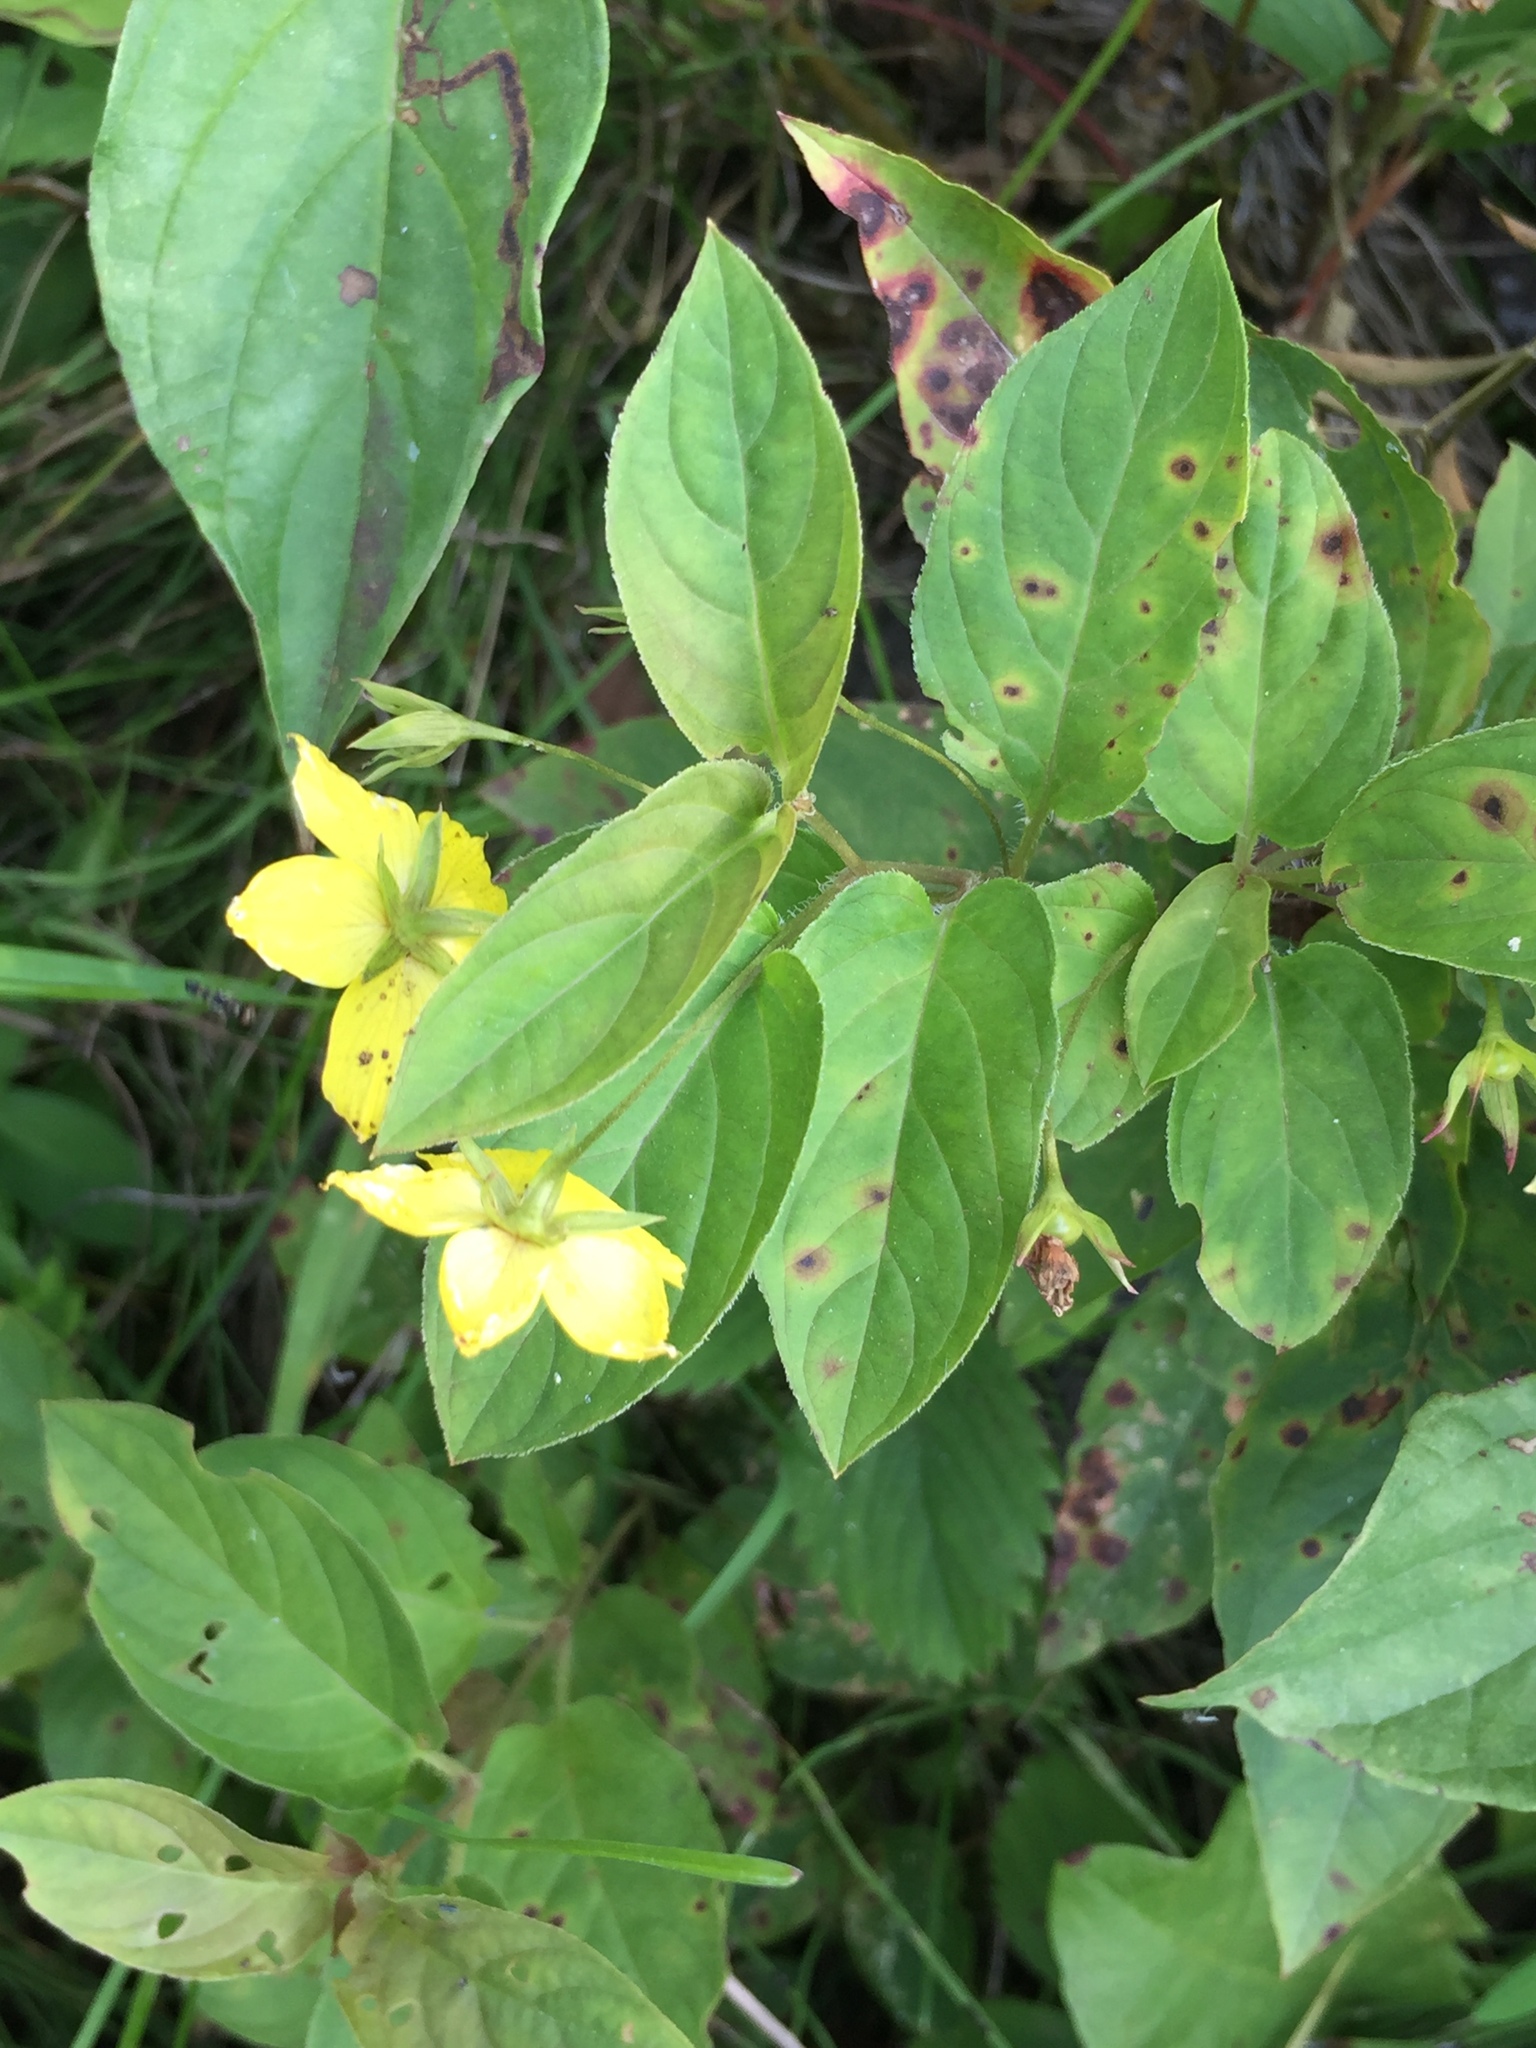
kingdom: Plantae
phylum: Tracheophyta
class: Magnoliopsida
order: Ericales
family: Primulaceae
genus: Lysimachia
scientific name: Lysimachia ciliata
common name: Fringed loosestrife
